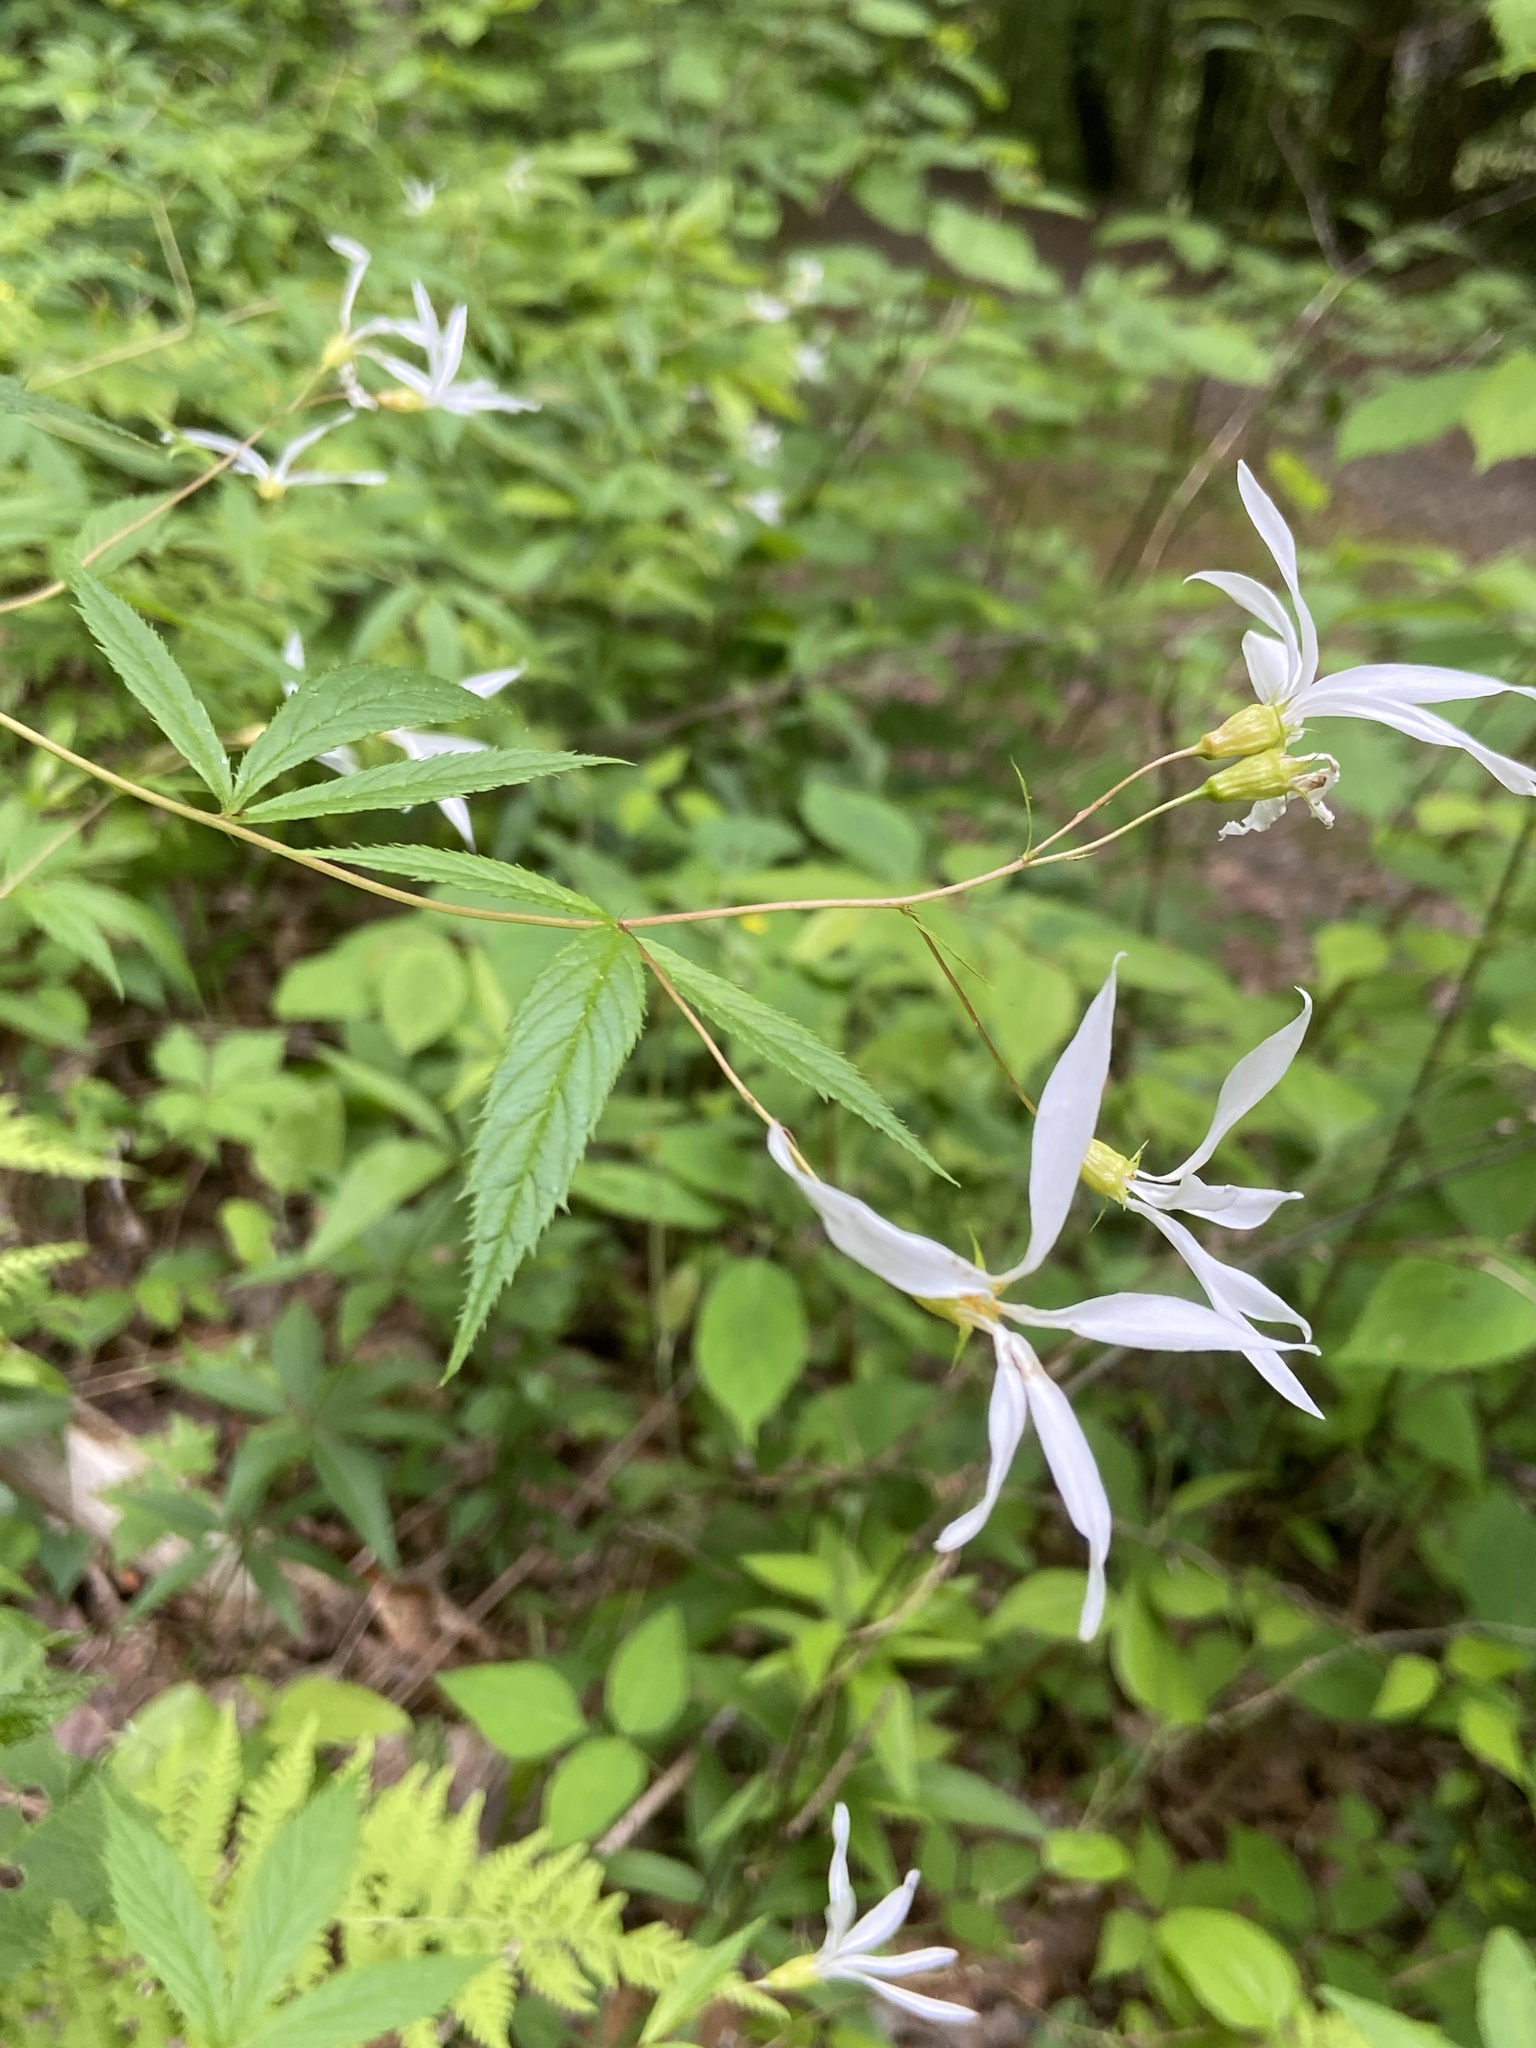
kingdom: Plantae
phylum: Tracheophyta
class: Magnoliopsida
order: Rosales
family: Rosaceae
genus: Gillenia
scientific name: Gillenia trifoliata
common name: Bowman's-root
